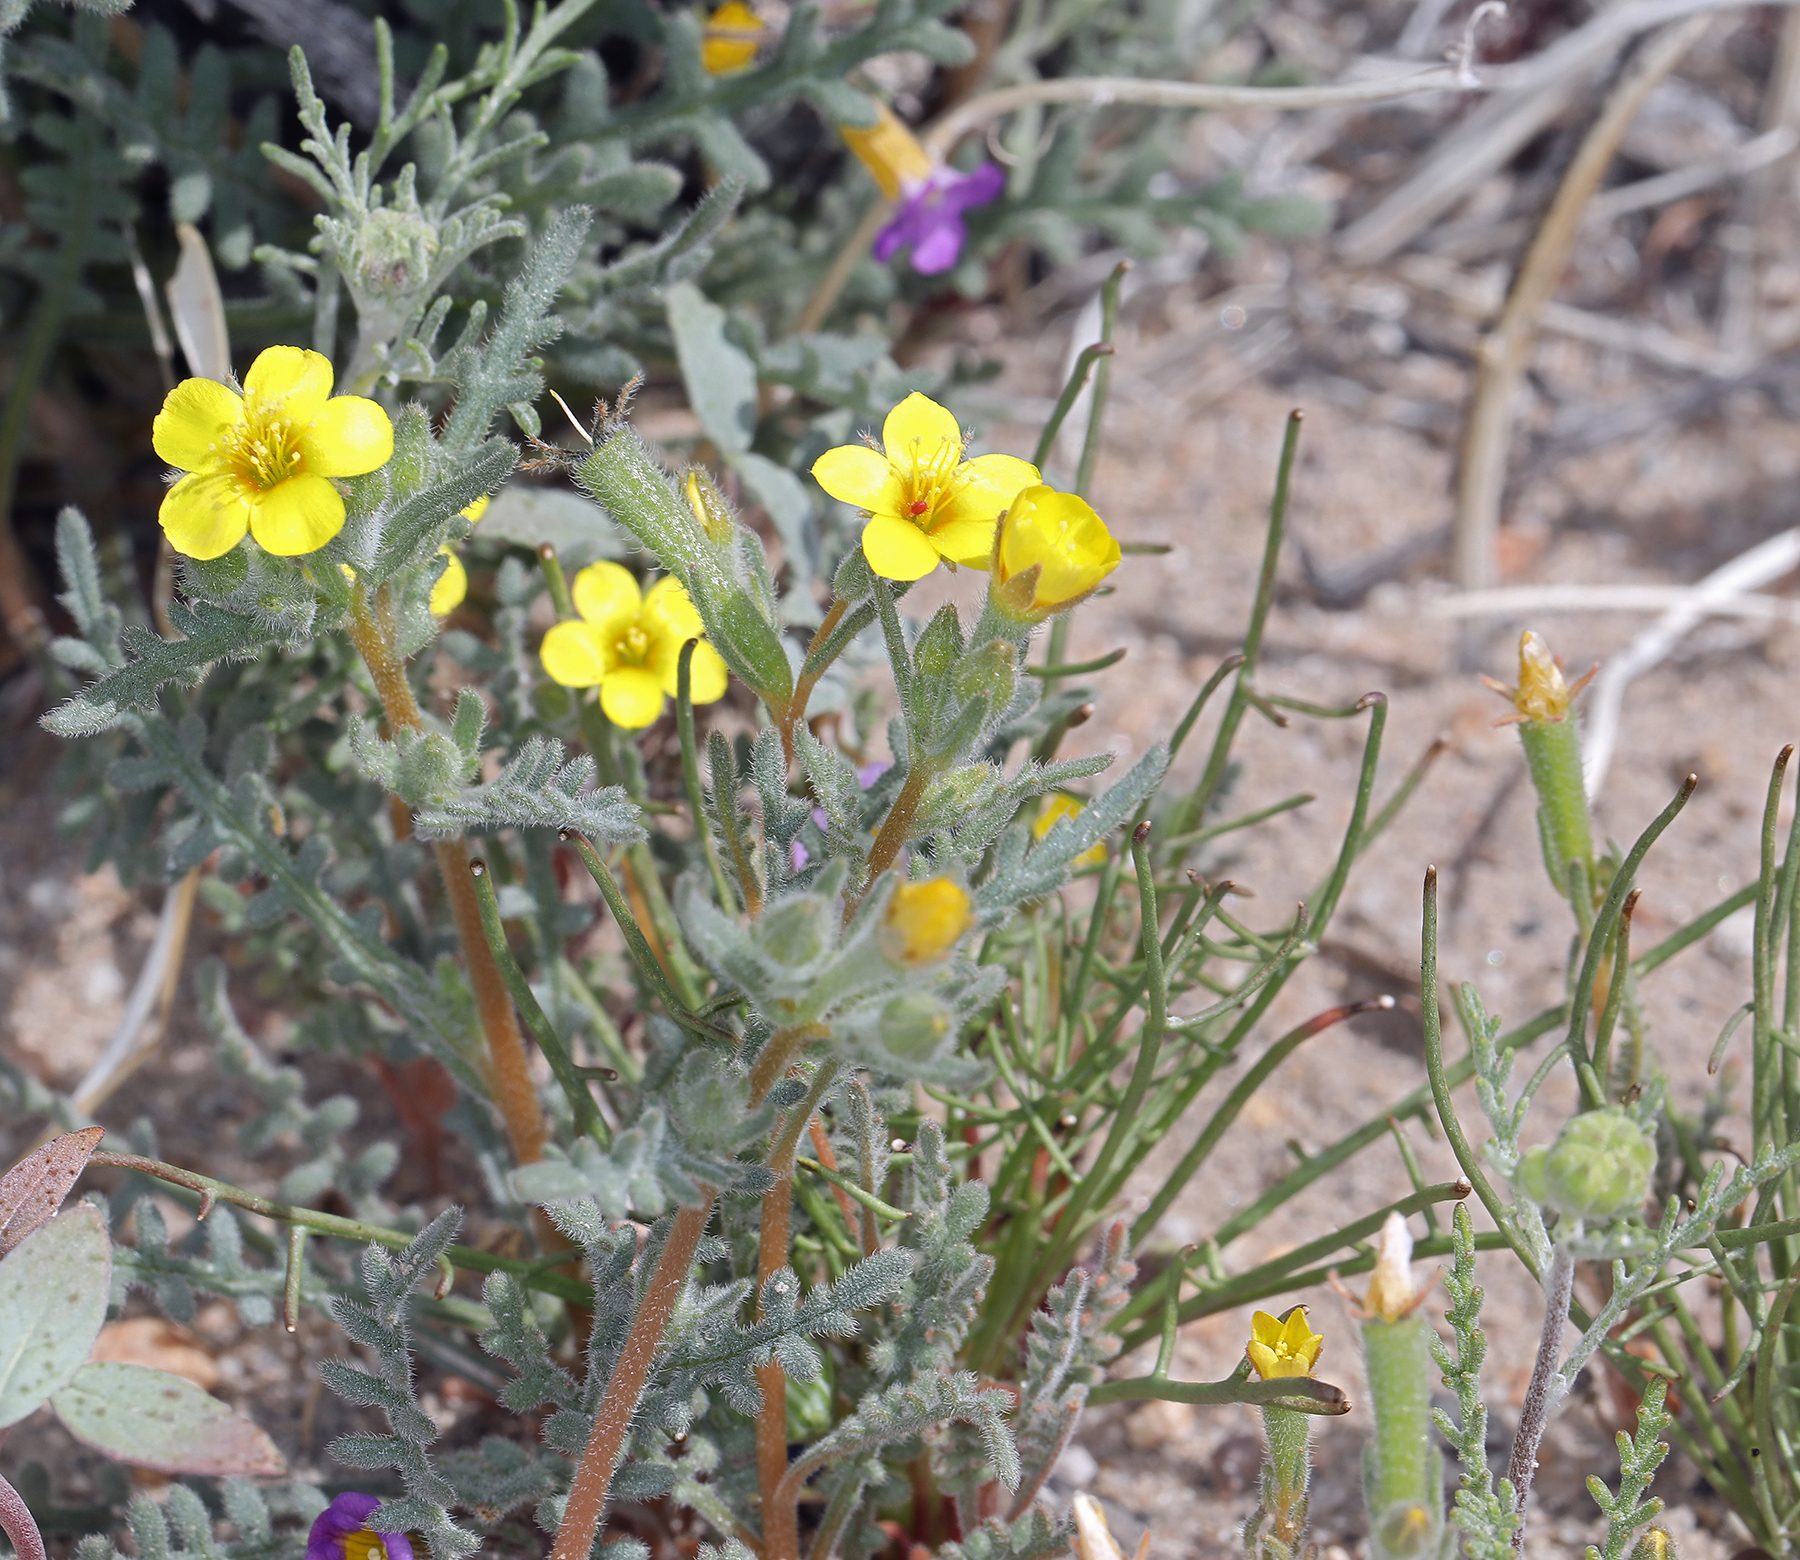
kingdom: Plantae
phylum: Tracheophyta
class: Magnoliopsida
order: Cornales
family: Loasaceae
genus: Mentzelia
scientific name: Mentzelia albicaulis
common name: White-stem blazingstar
